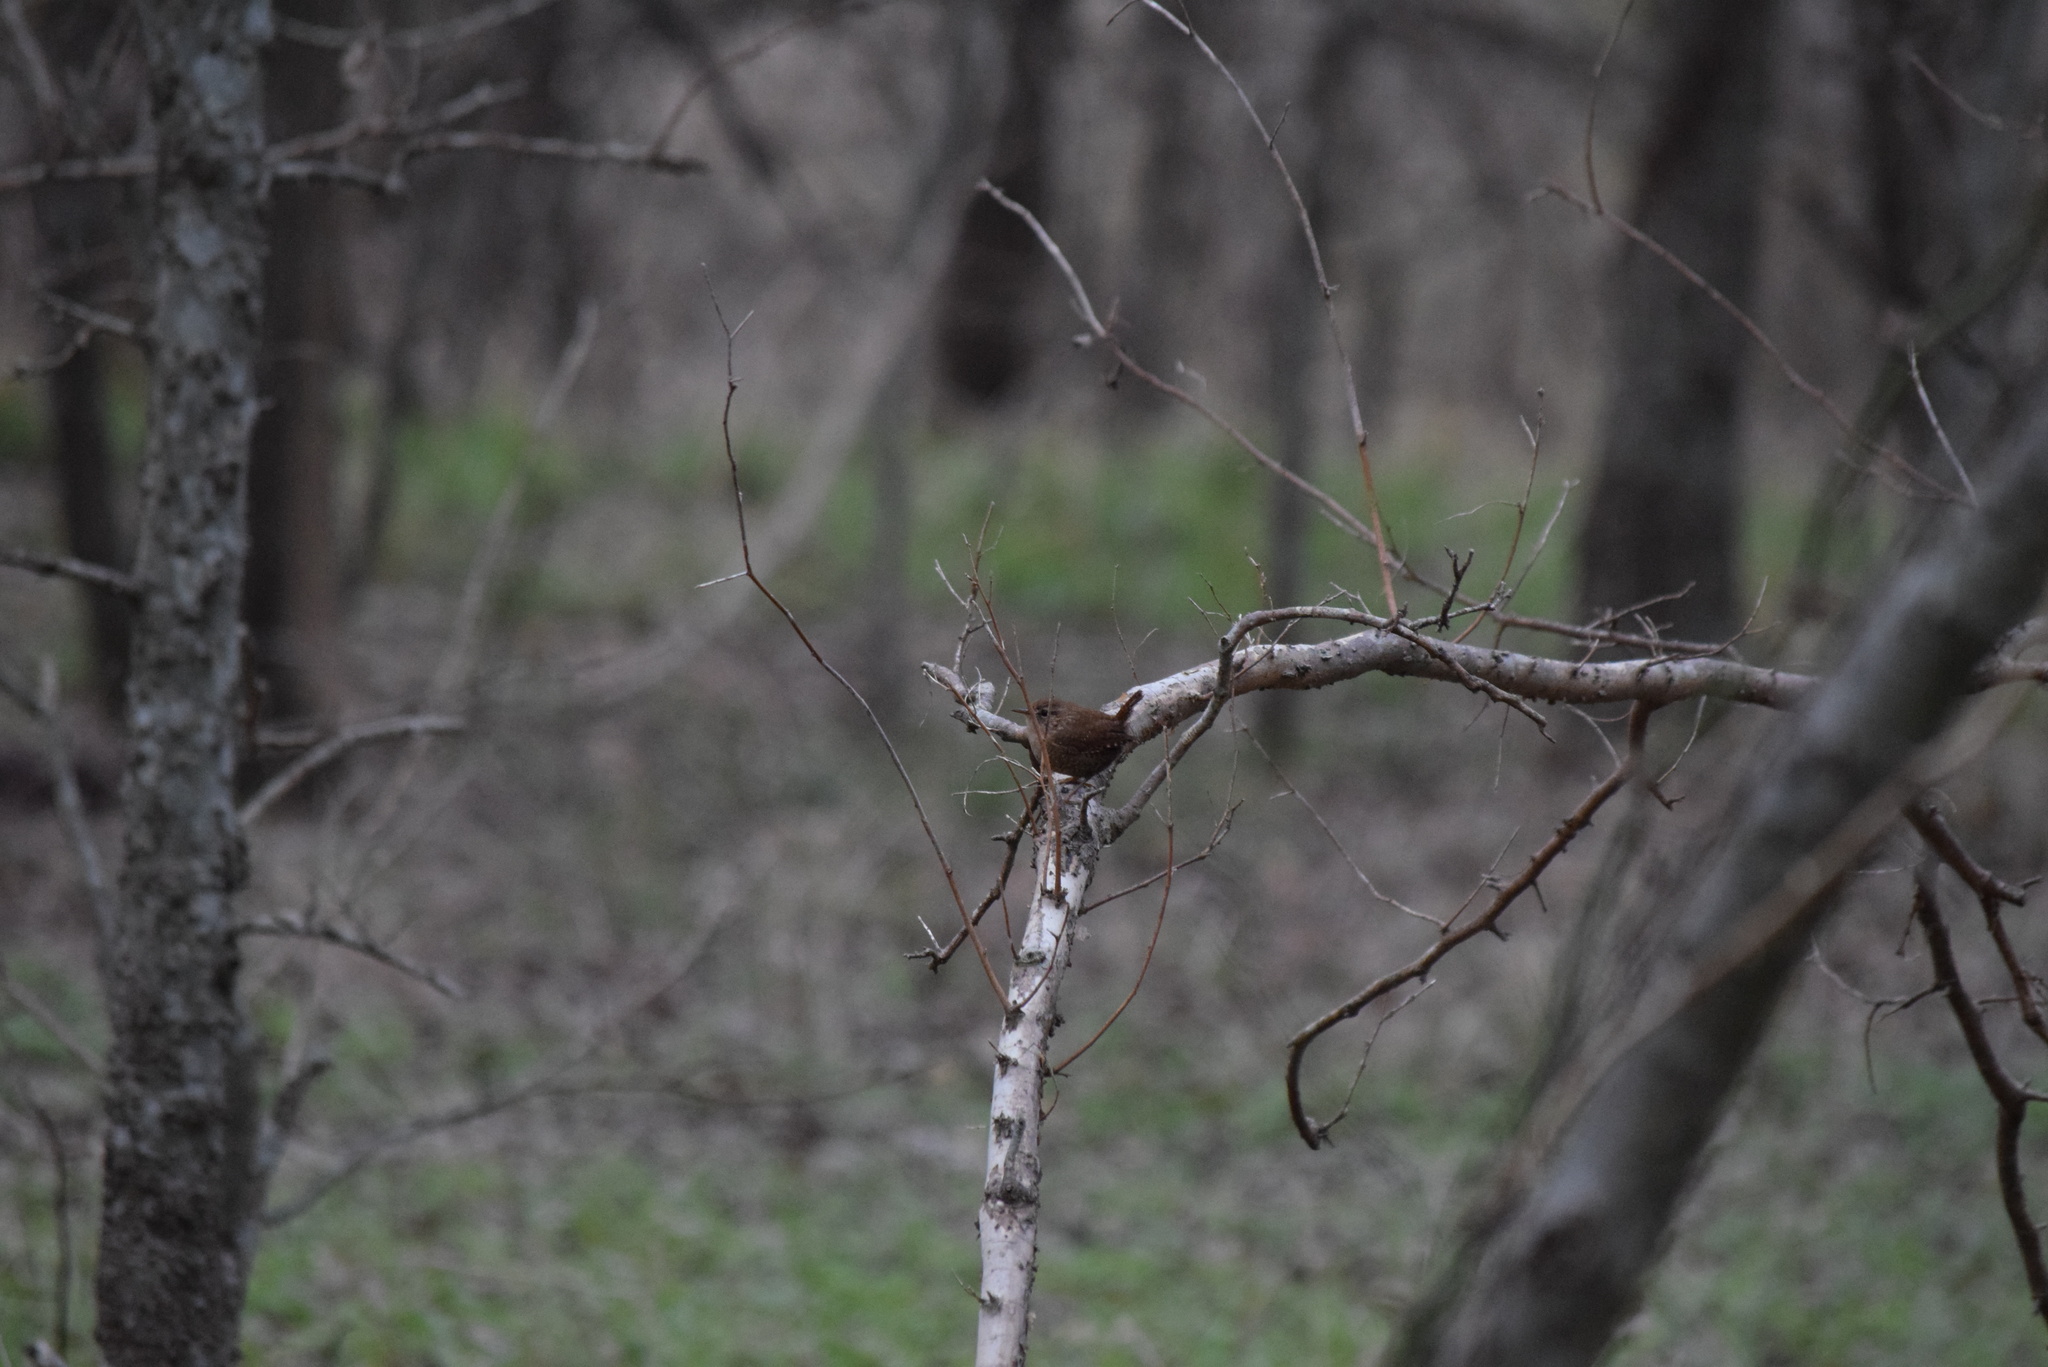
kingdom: Animalia
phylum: Chordata
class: Aves
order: Passeriformes
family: Troglodytidae
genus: Troglodytes
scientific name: Troglodytes hiemalis
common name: Winter wren
